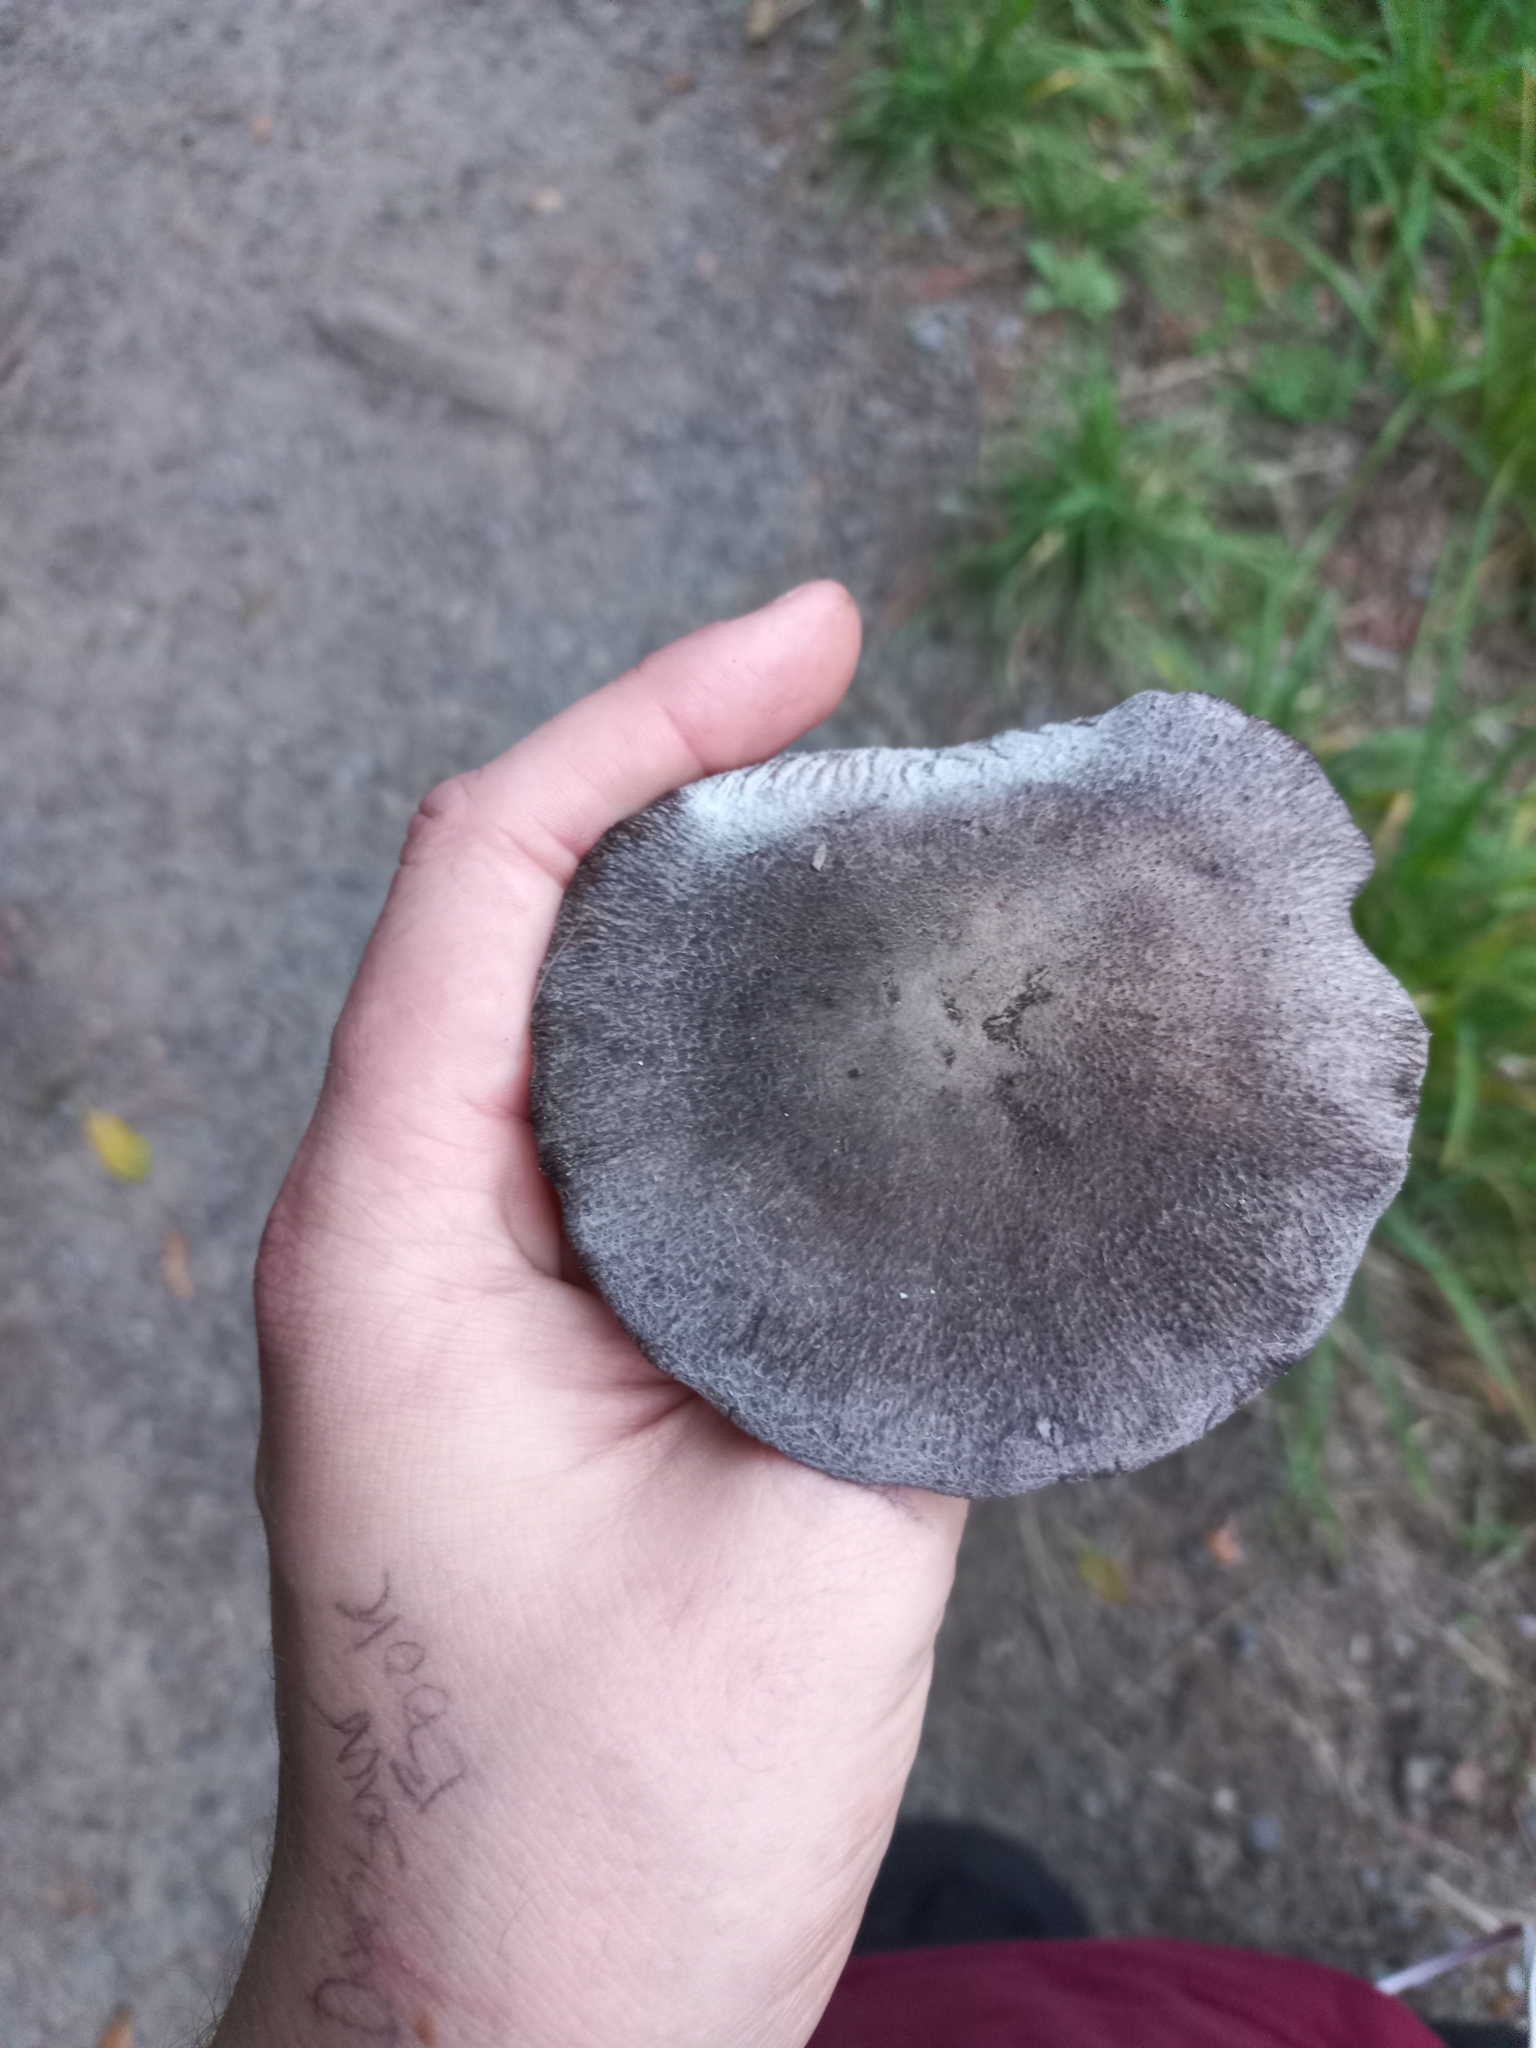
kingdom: Fungi
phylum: Basidiomycota
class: Agaricomycetes
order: Agaricales
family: Tricholomataceae
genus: Tricholoma
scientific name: Tricholoma terreum
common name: Grey knight
